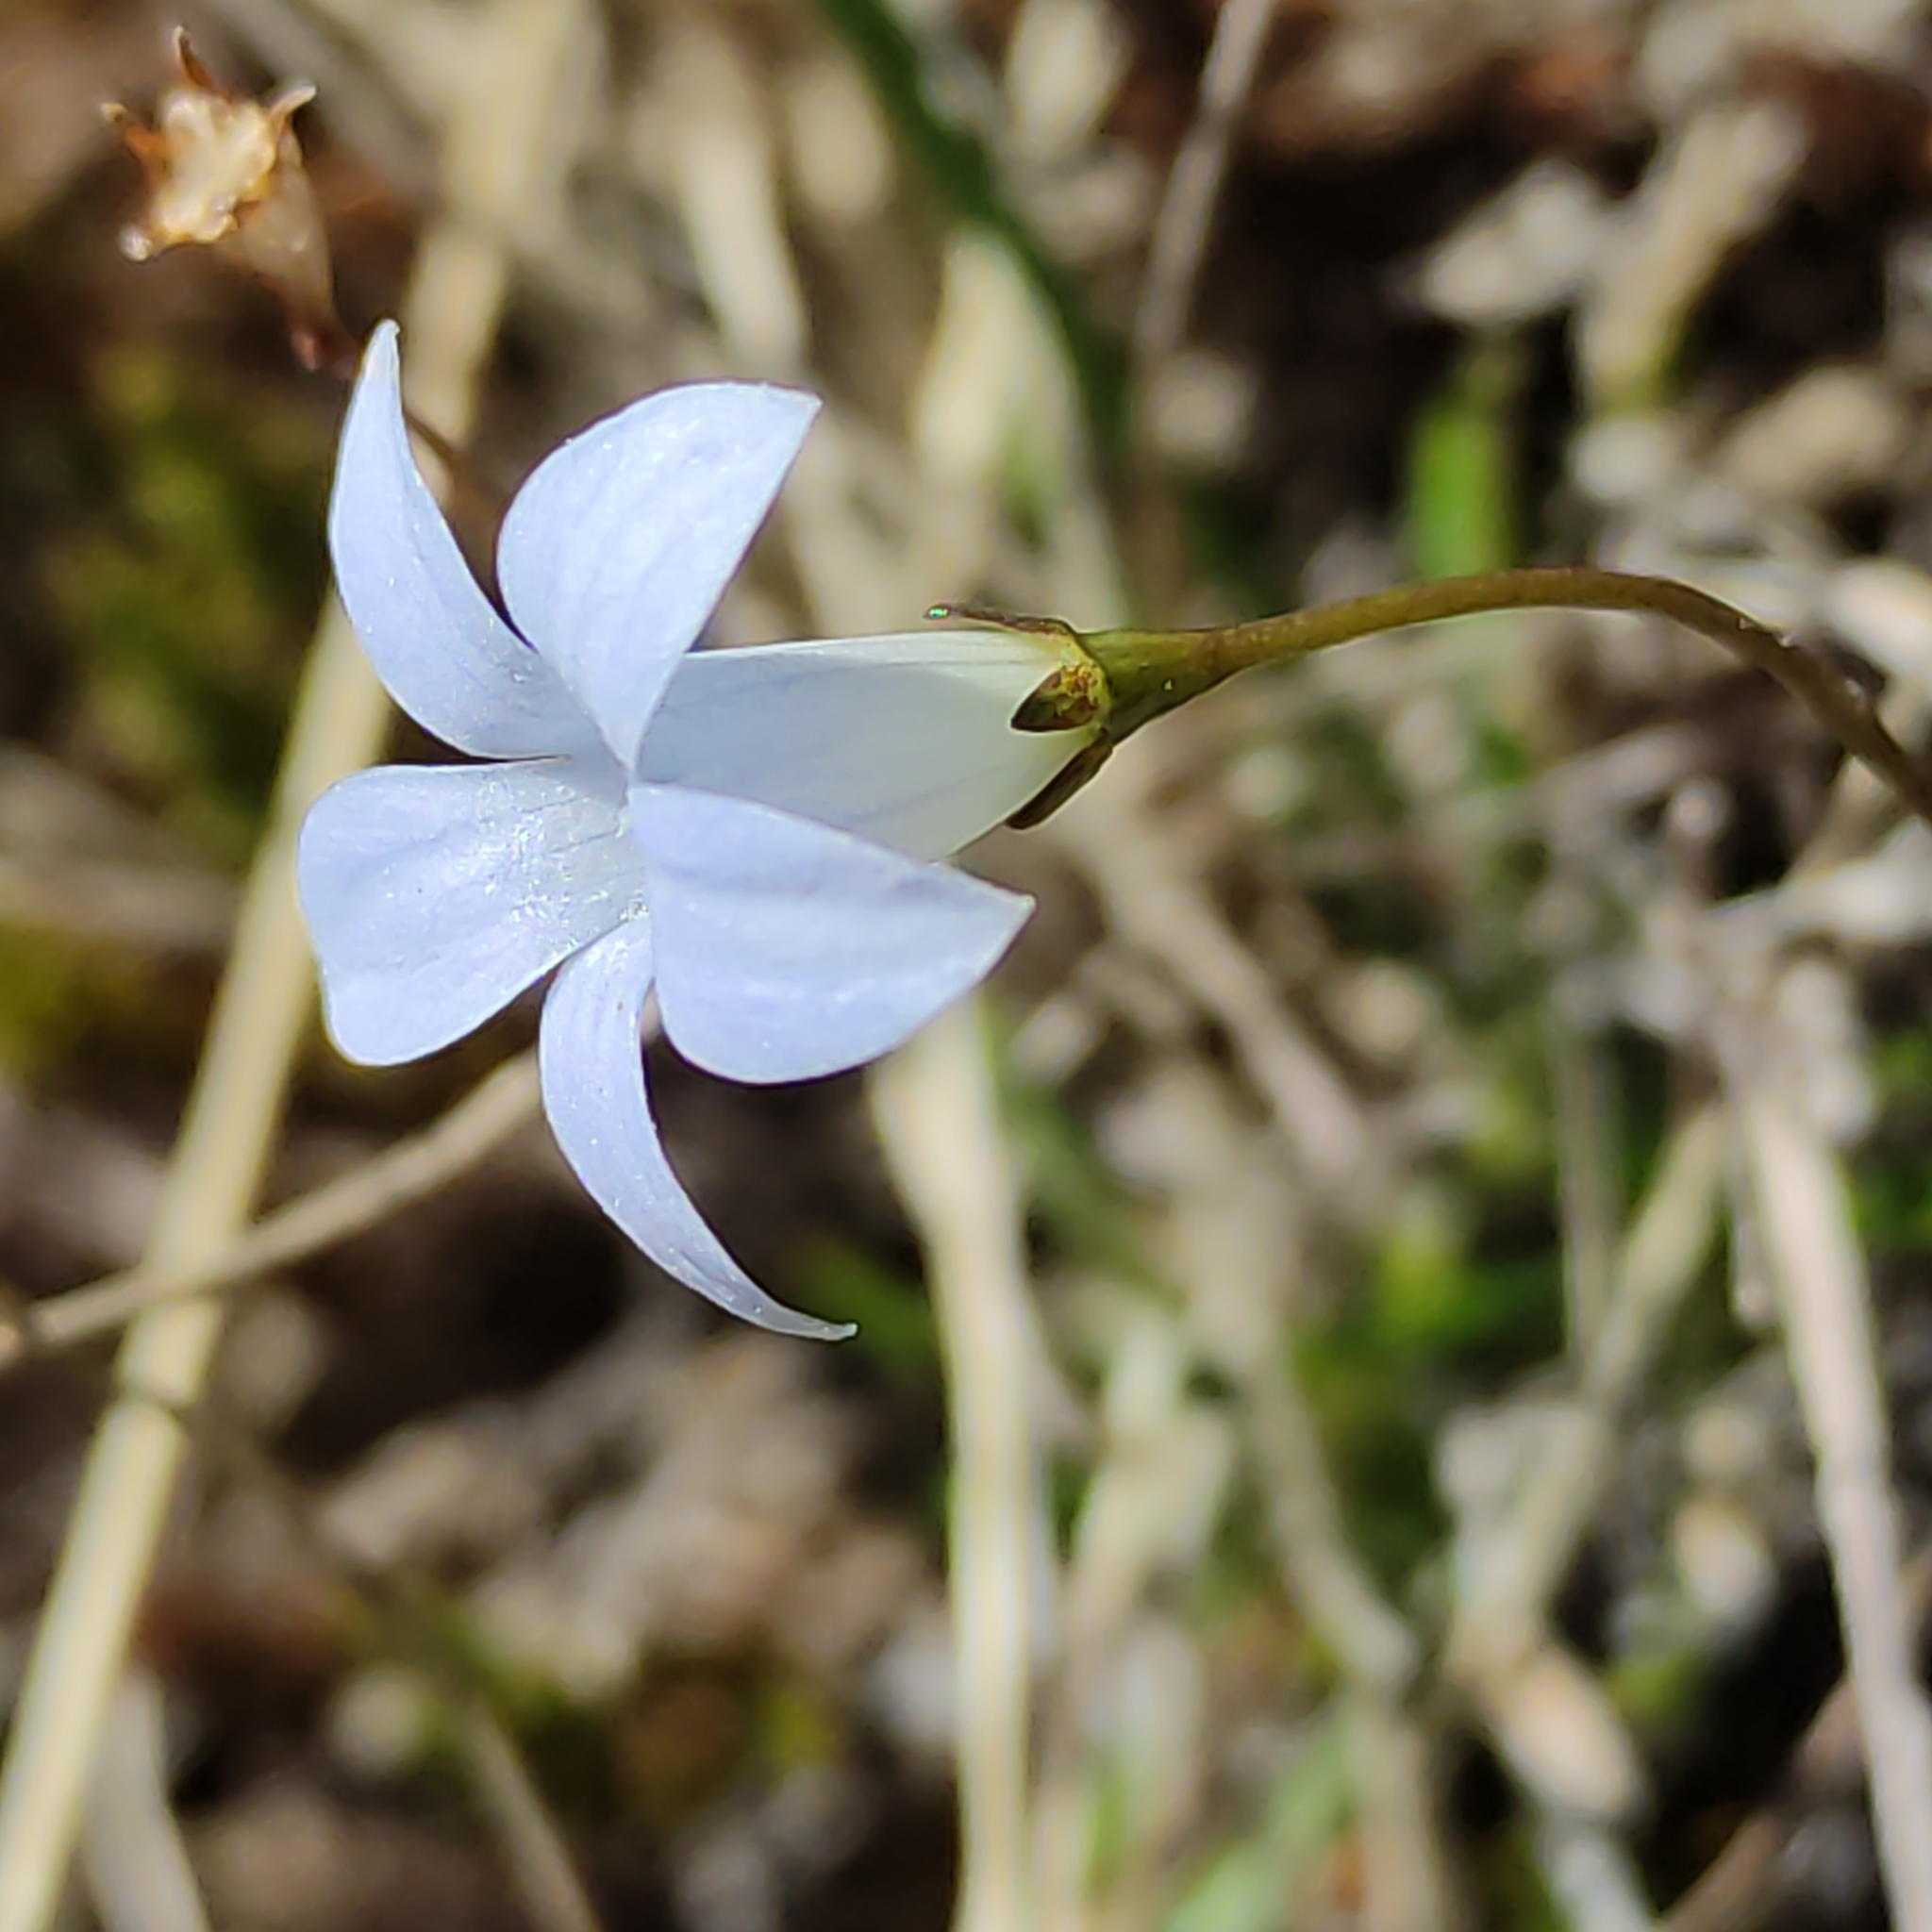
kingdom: Plantae
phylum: Tracheophyta
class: Magnoliopsida
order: Asterales
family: Campanulaceae
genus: Wahlenbergia
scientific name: Wahlenbergia albomarginata
